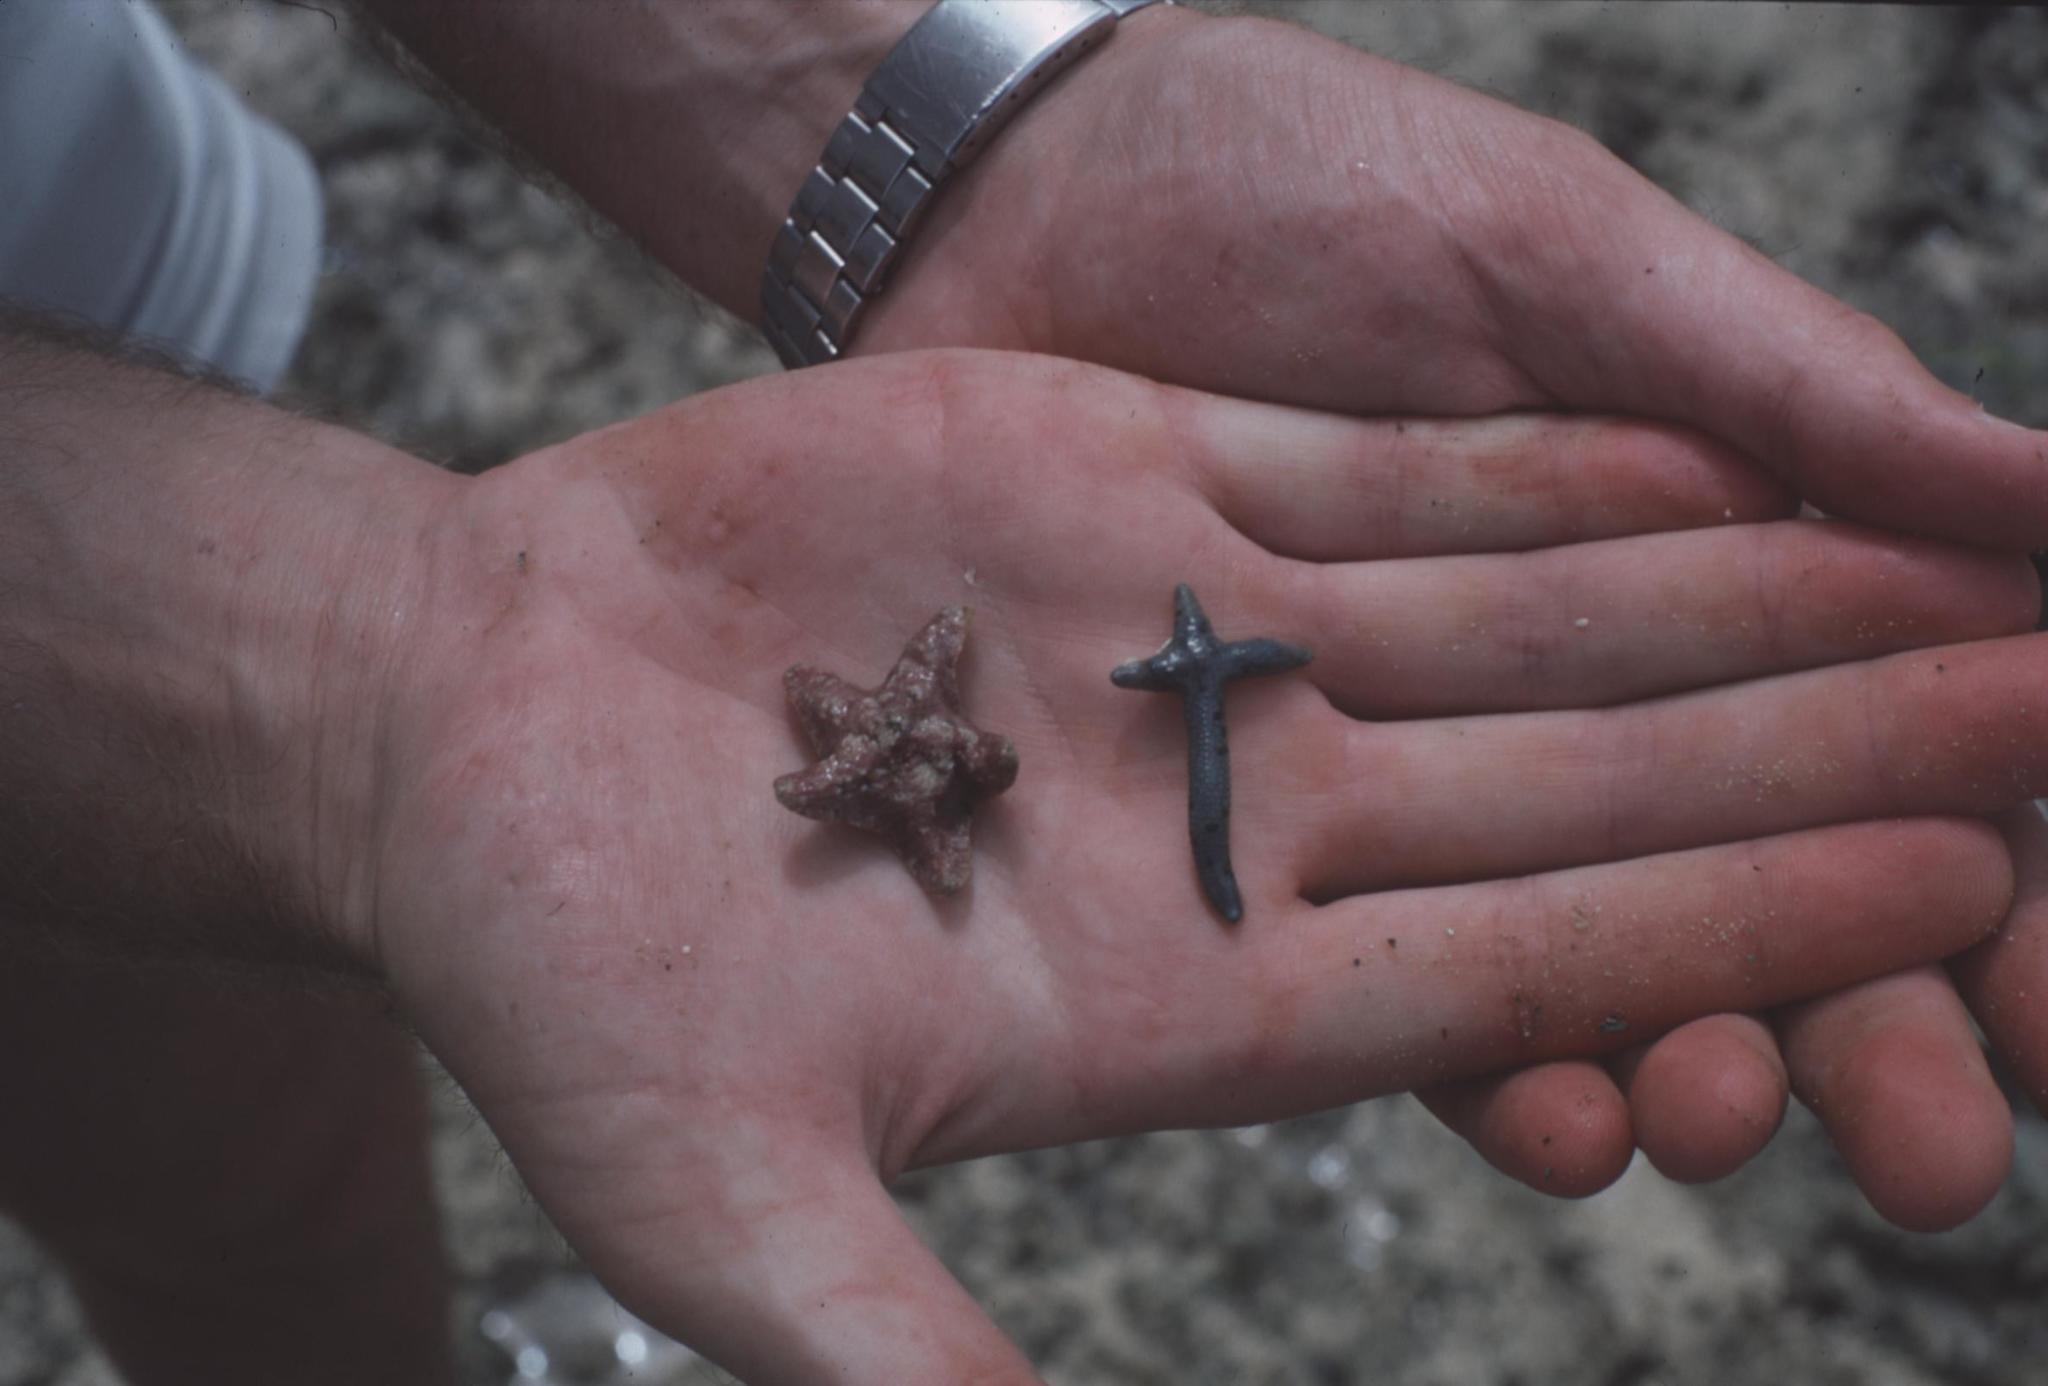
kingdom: Animalia
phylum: Echinodermata
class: Asteroidea
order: Valvatida
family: Ophidiasteridae
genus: Linckia
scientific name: Linckia multifora
